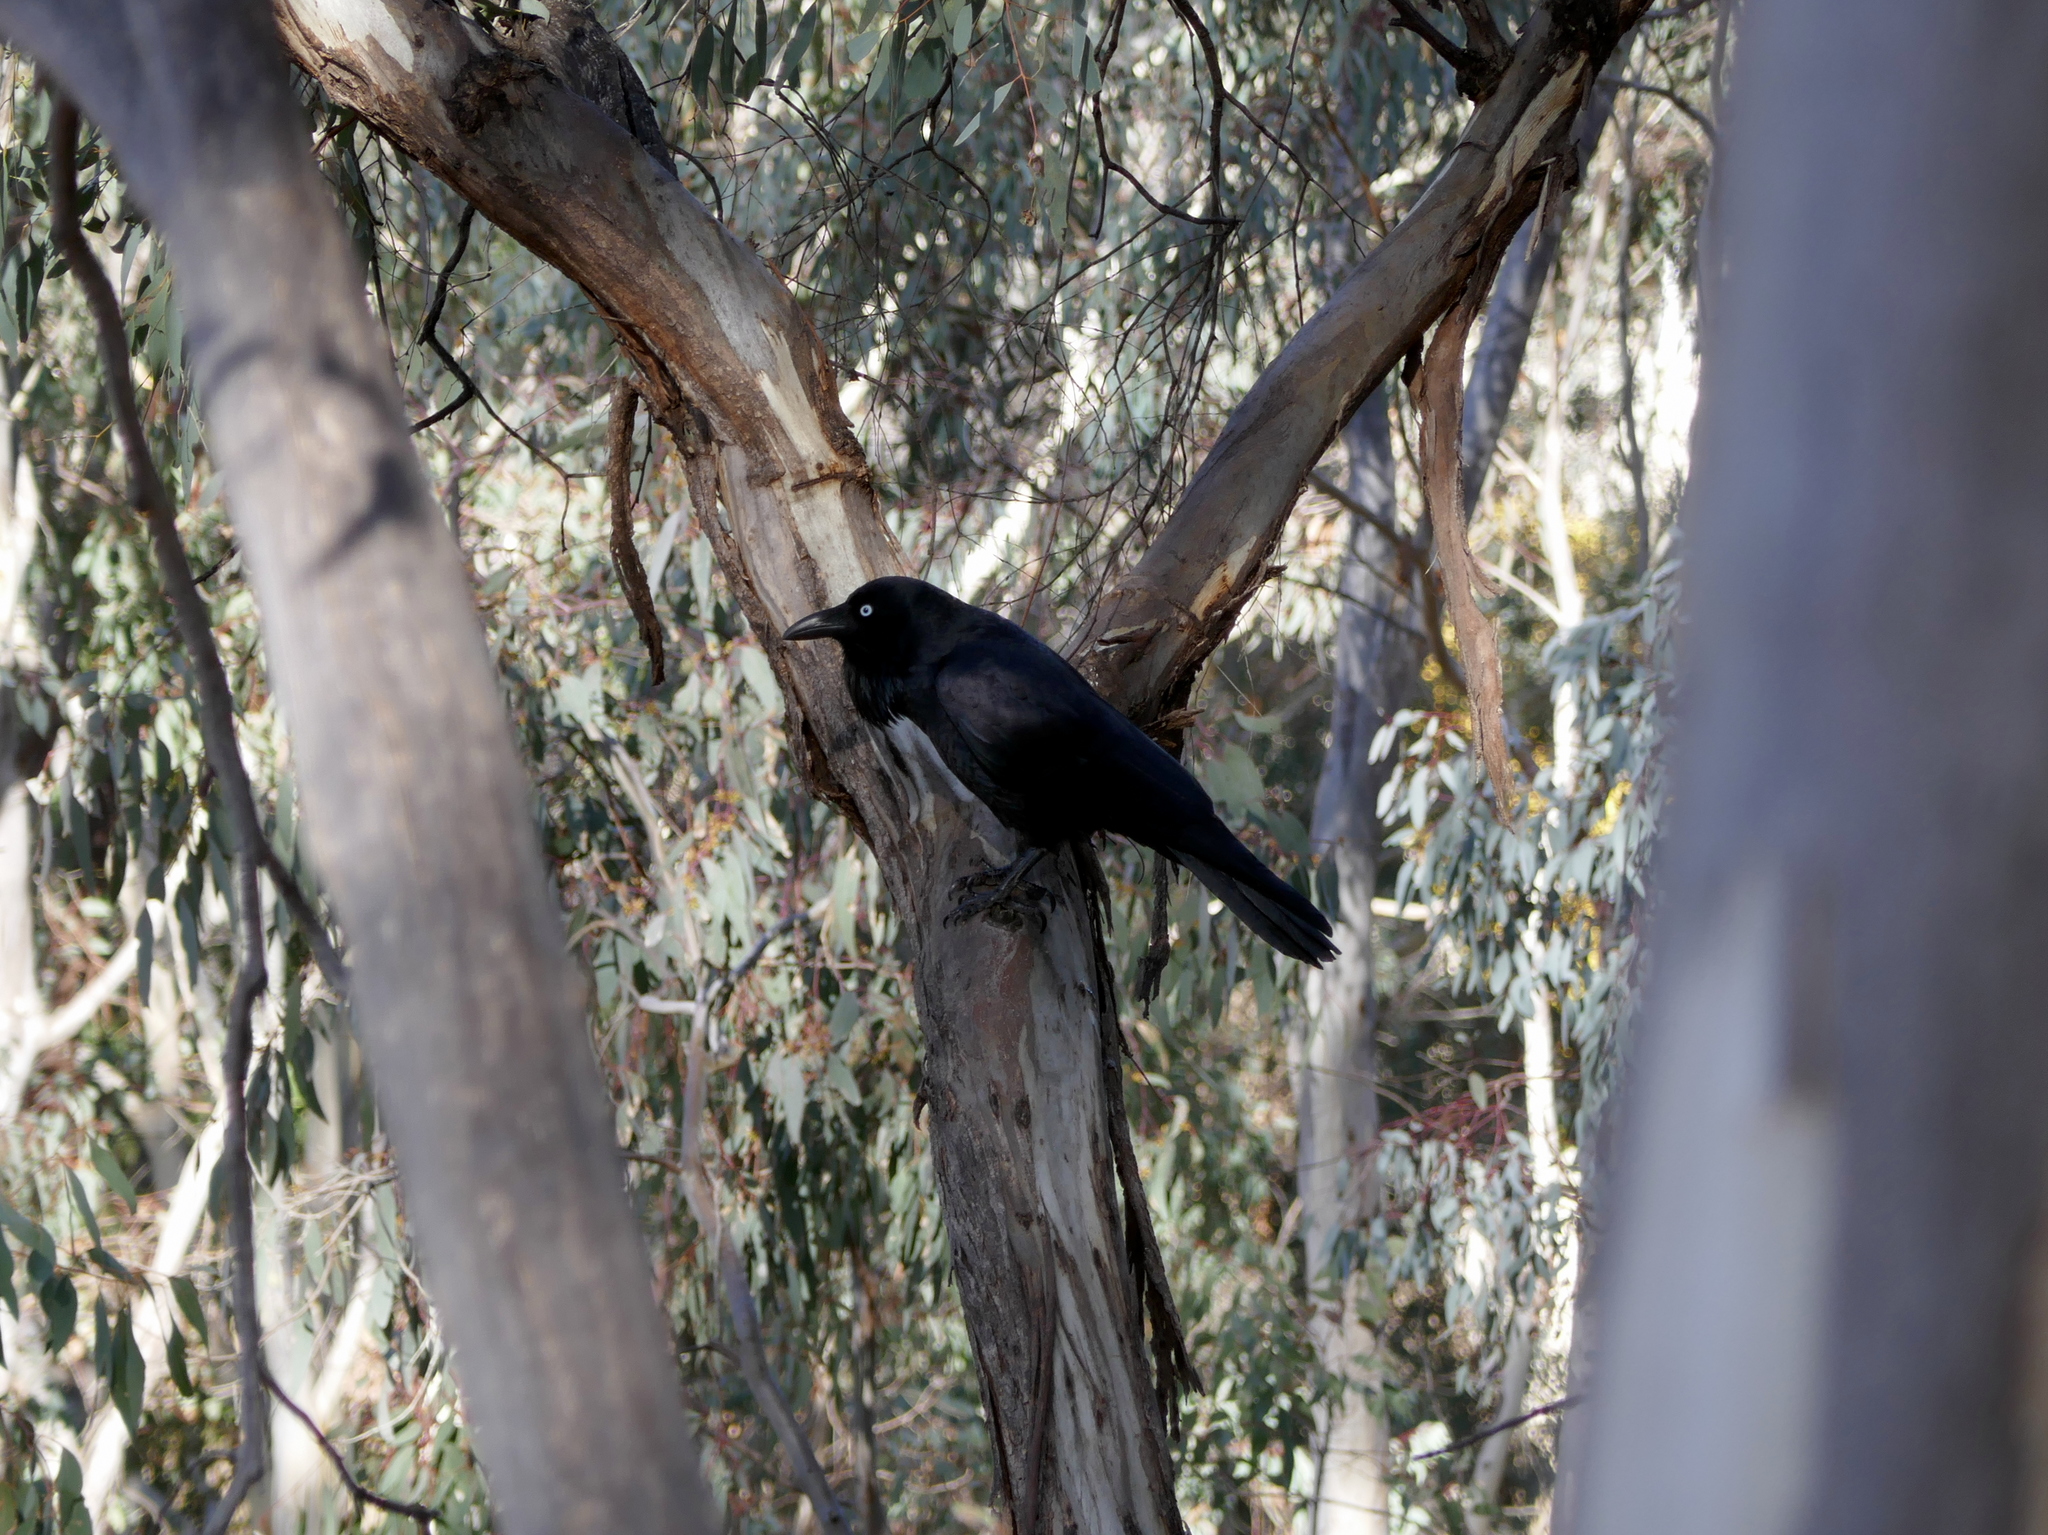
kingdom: Animalia
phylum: Chordata
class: Aves
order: Passeriformes
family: Corvidae
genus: Corvus
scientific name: Corvus coronoides
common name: Australian raven
